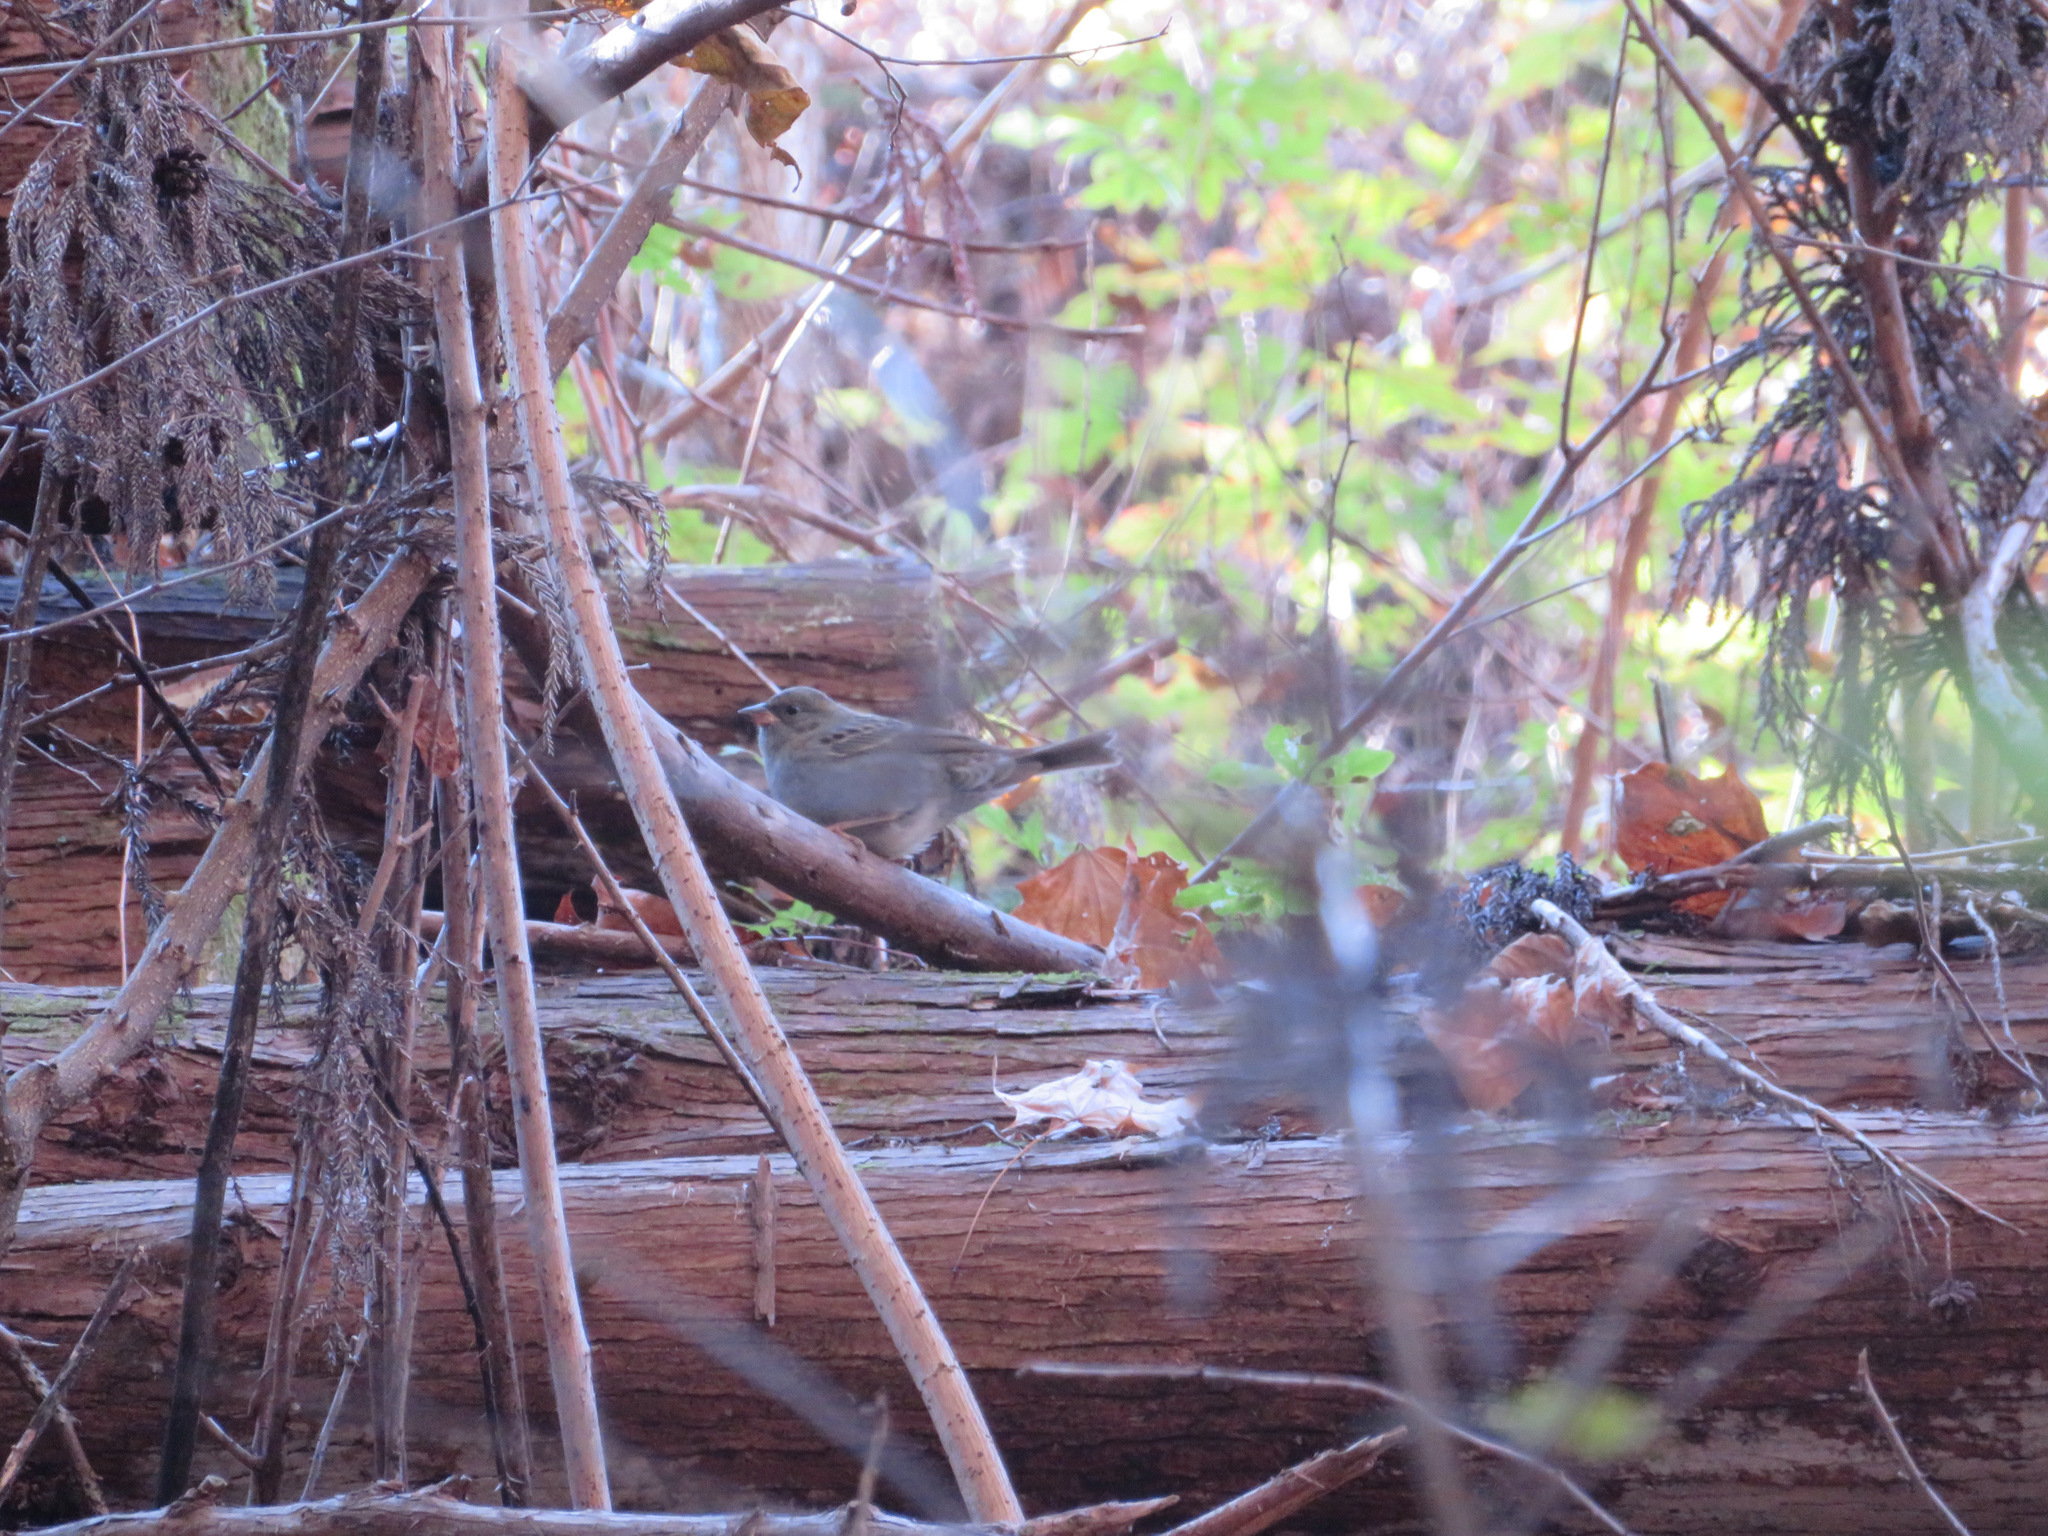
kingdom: Animalia
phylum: Chordata
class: Aves
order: Passeriformes
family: Emberizidae
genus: Emberiza
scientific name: Emberiza variabilis
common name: Gray bunting
